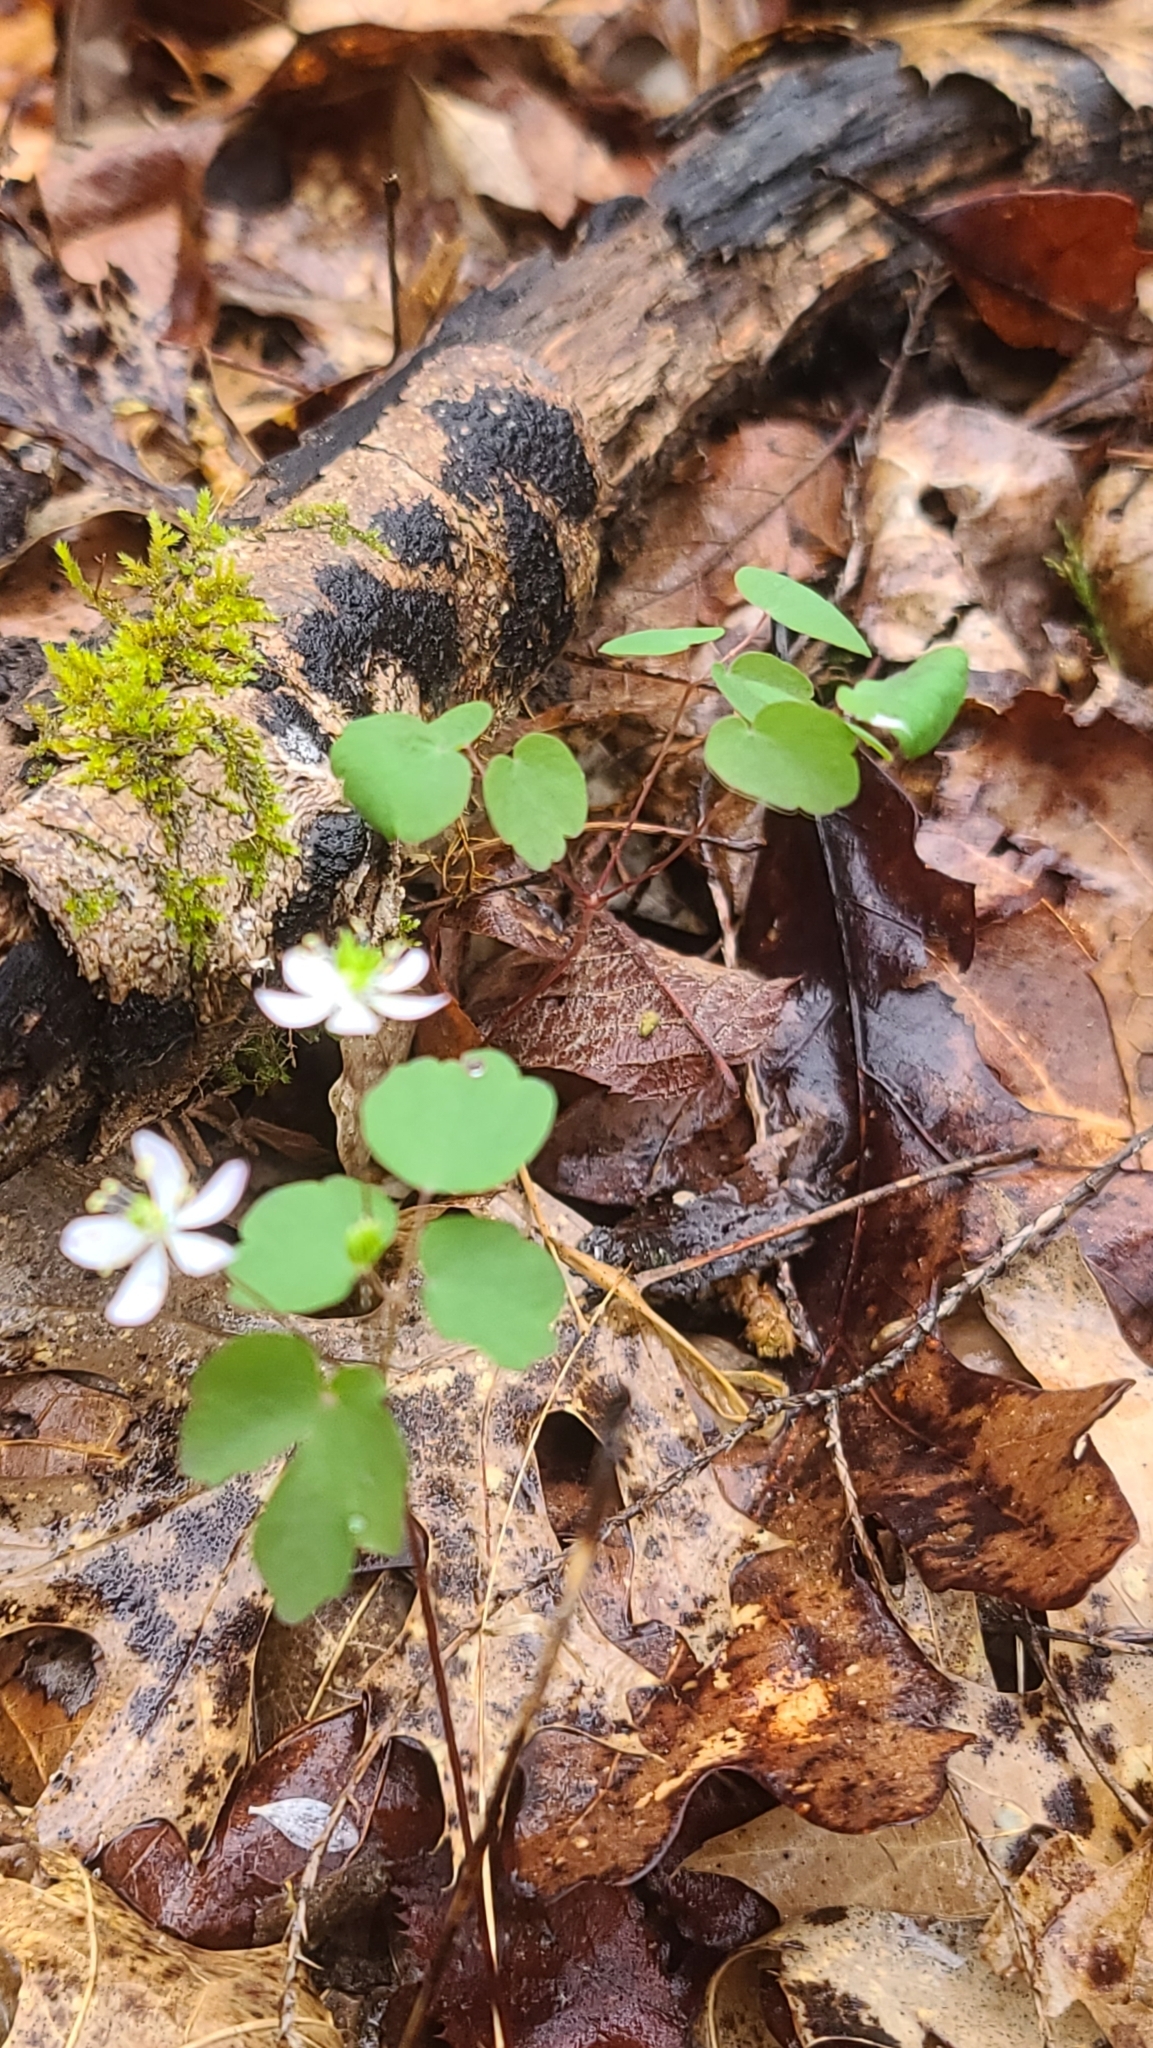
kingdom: Plantae
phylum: Tracheophyta
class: Magnoliopsida
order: Ranunculales
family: Ranunculaceae
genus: Thalictrum
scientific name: Thalictrum thalictroides
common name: Rue-anemone
